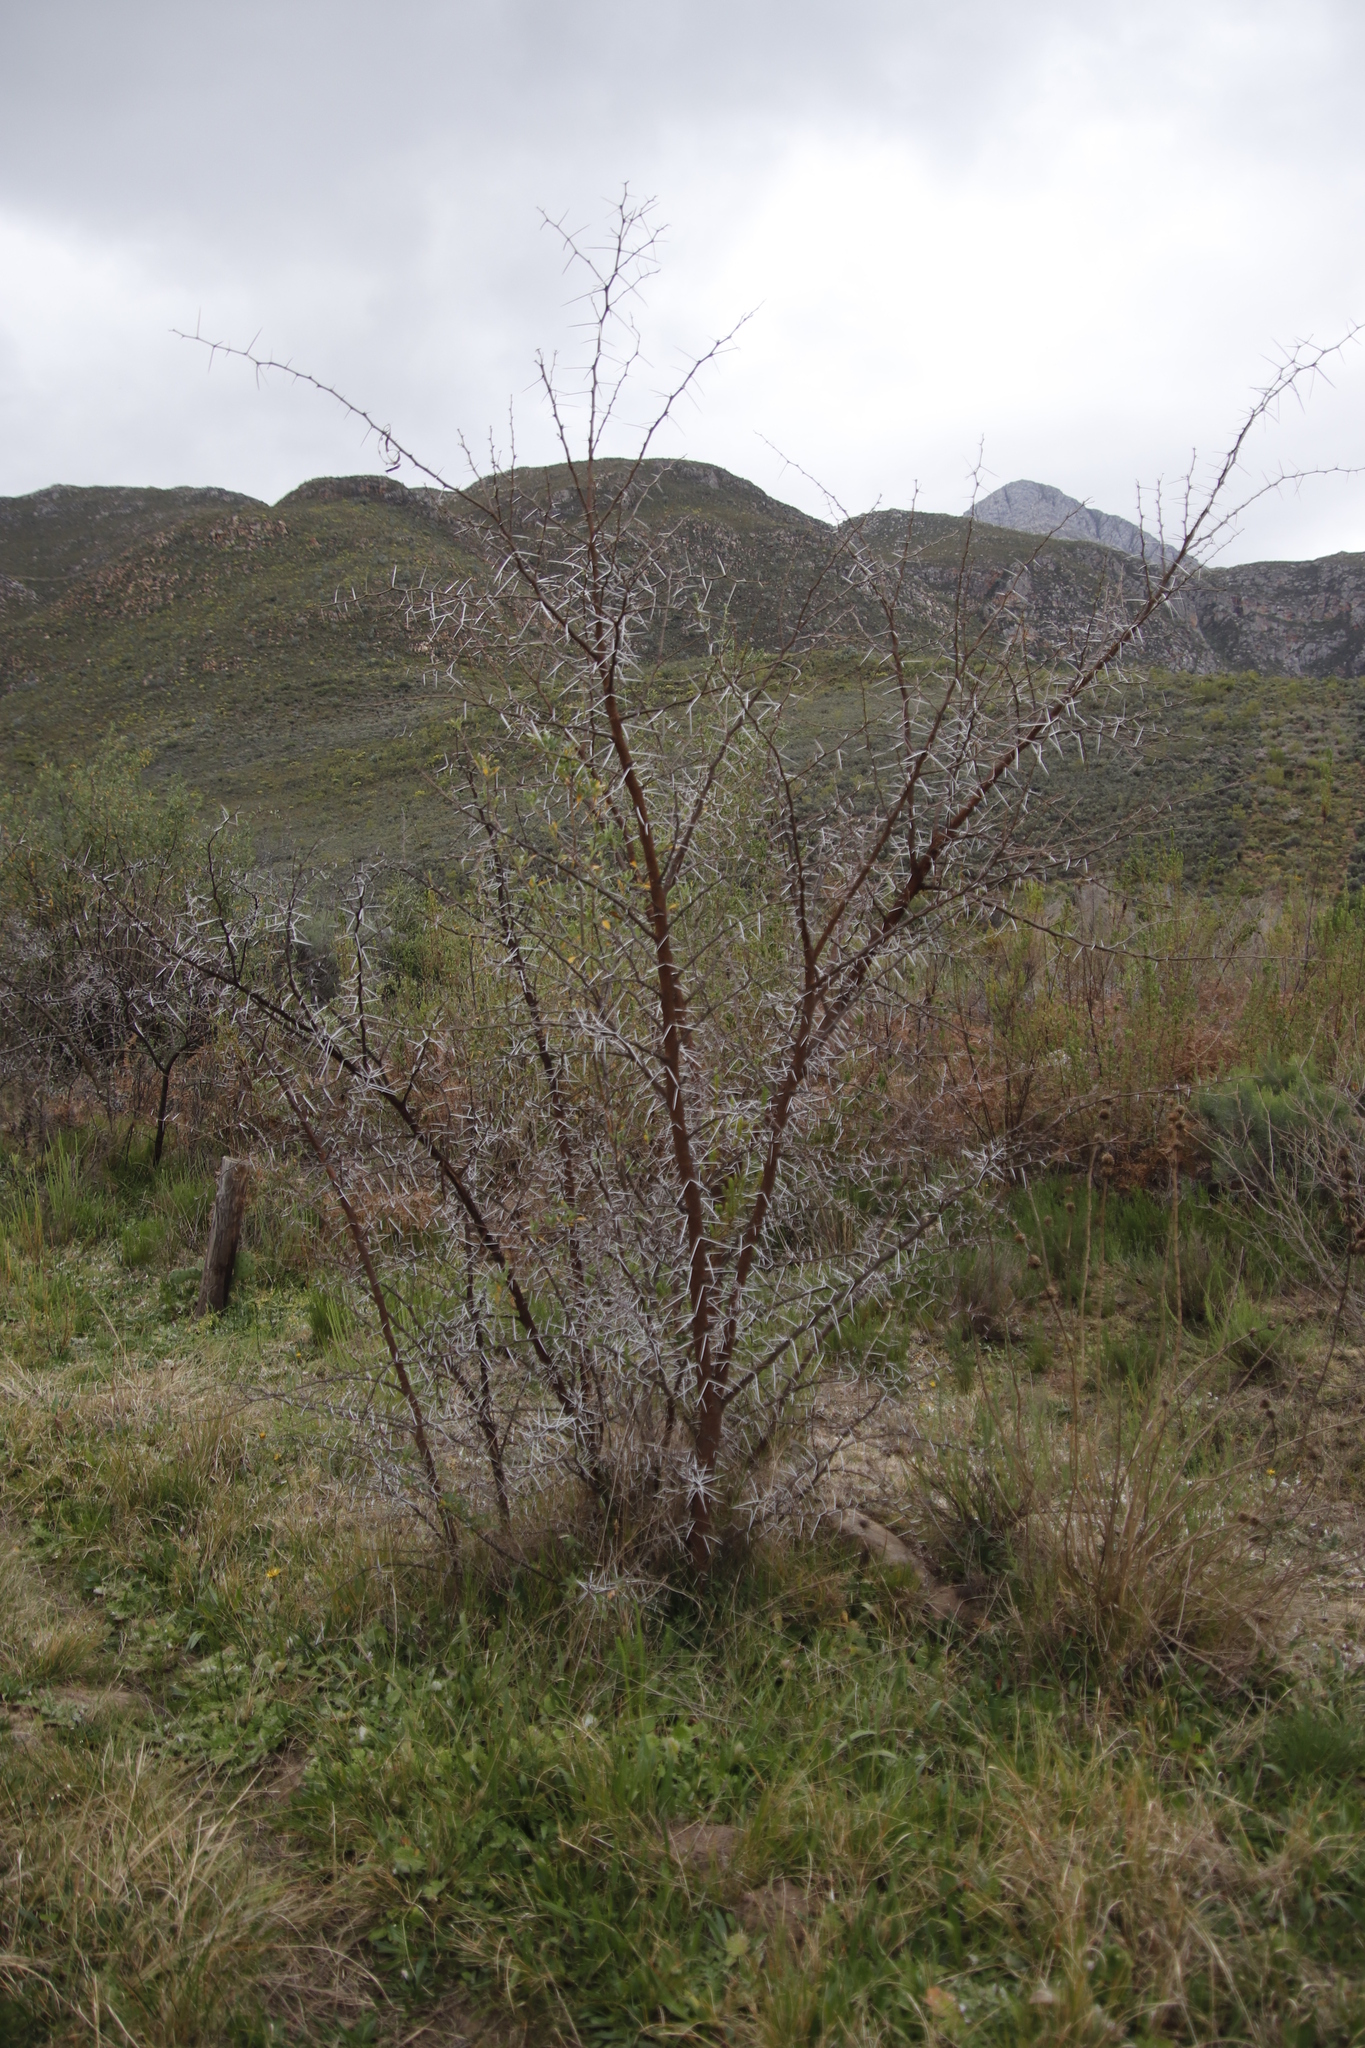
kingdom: Plantae
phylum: Tracheophyta
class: Magnoliopsida
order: Fabales
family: Fabaceae
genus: Vachellia
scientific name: Vachellia karroo
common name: Sweet thorn
